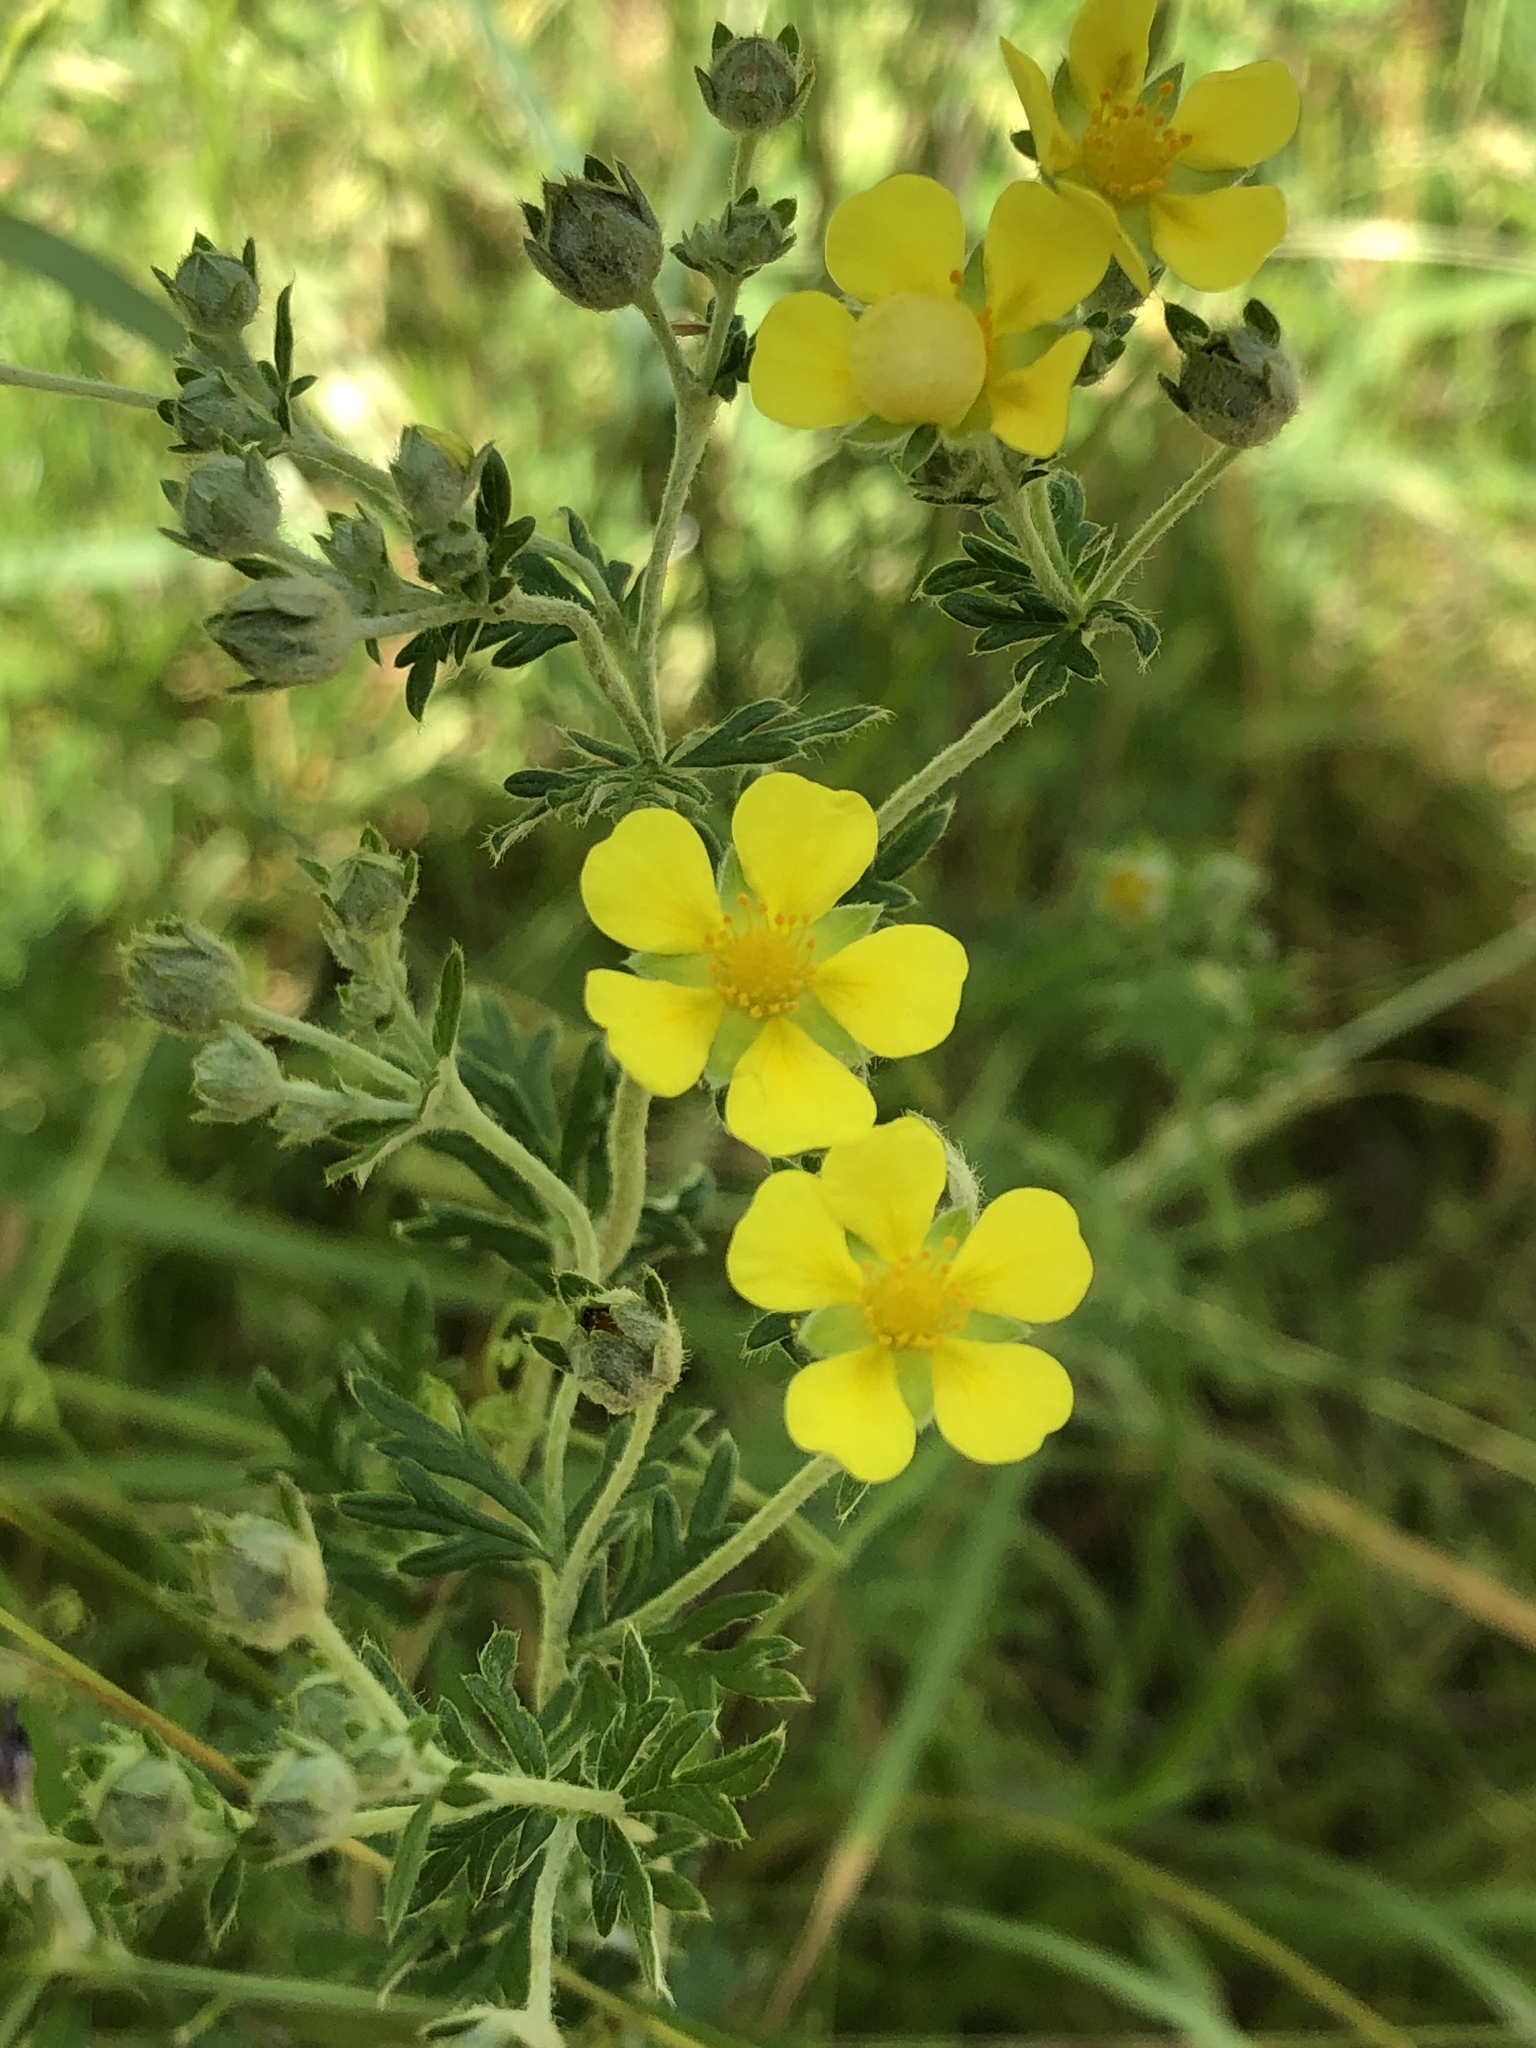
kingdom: Plantae
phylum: Tracheophyta
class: Magnoliopsida
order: Rosales
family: Rosaceae
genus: Potentilla
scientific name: Potentilla argentea
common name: Hoary cinquefoil
